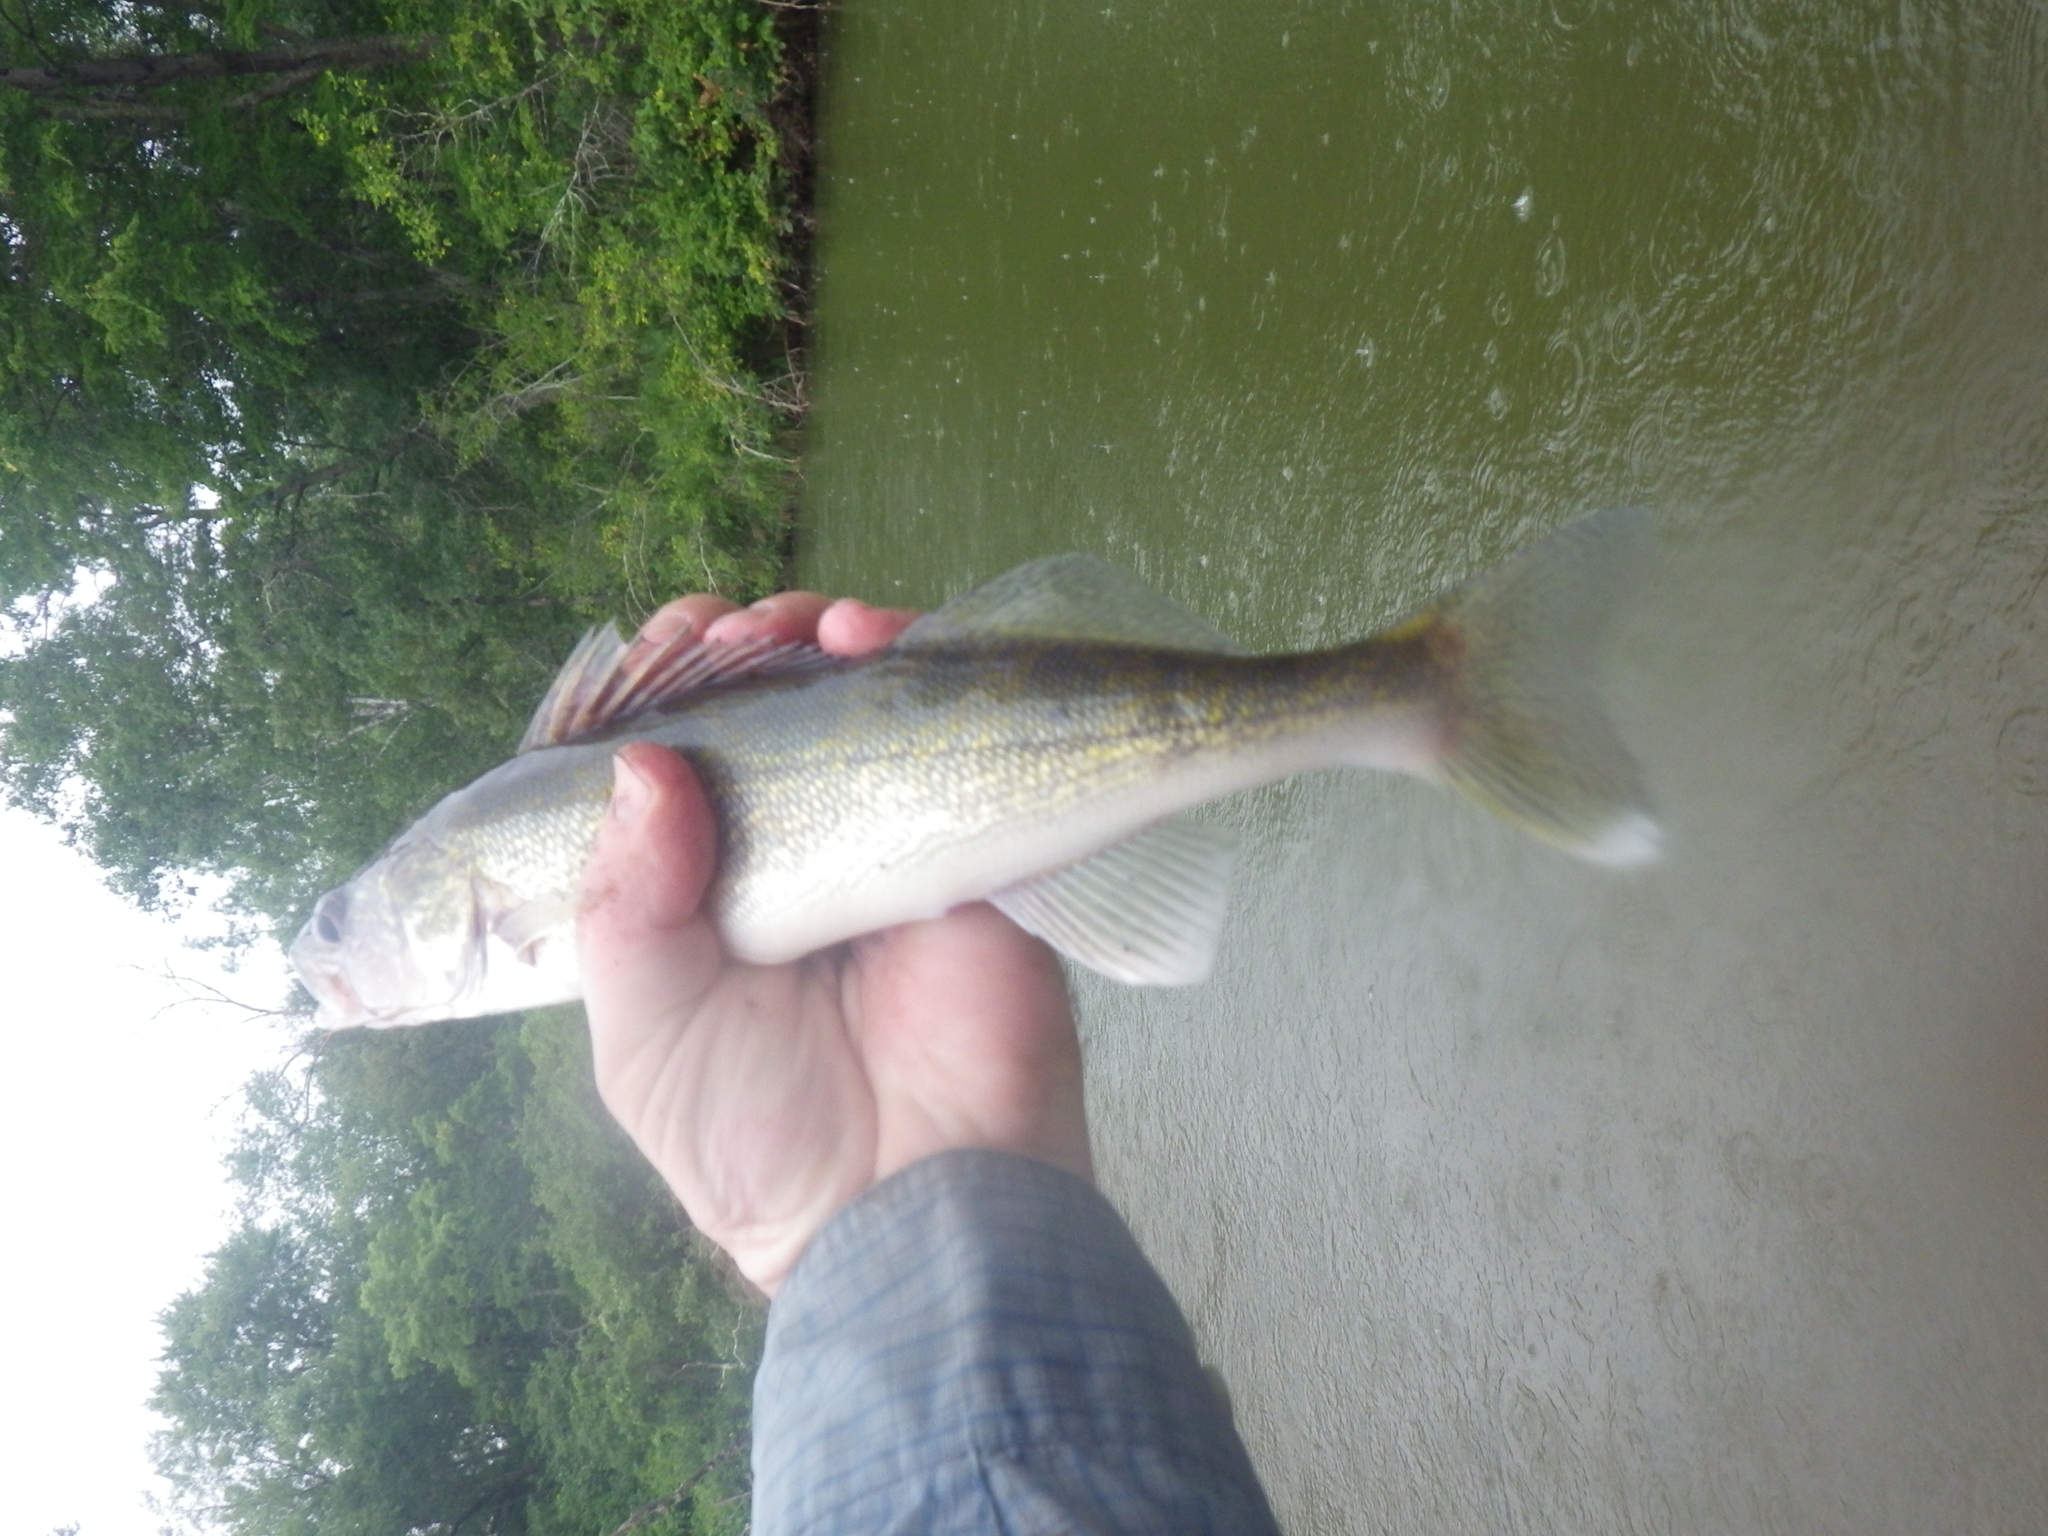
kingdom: Animalia
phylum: Chordata
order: Perciformes
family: Percidae
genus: Sander
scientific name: Sander vitreus
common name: Walleye
